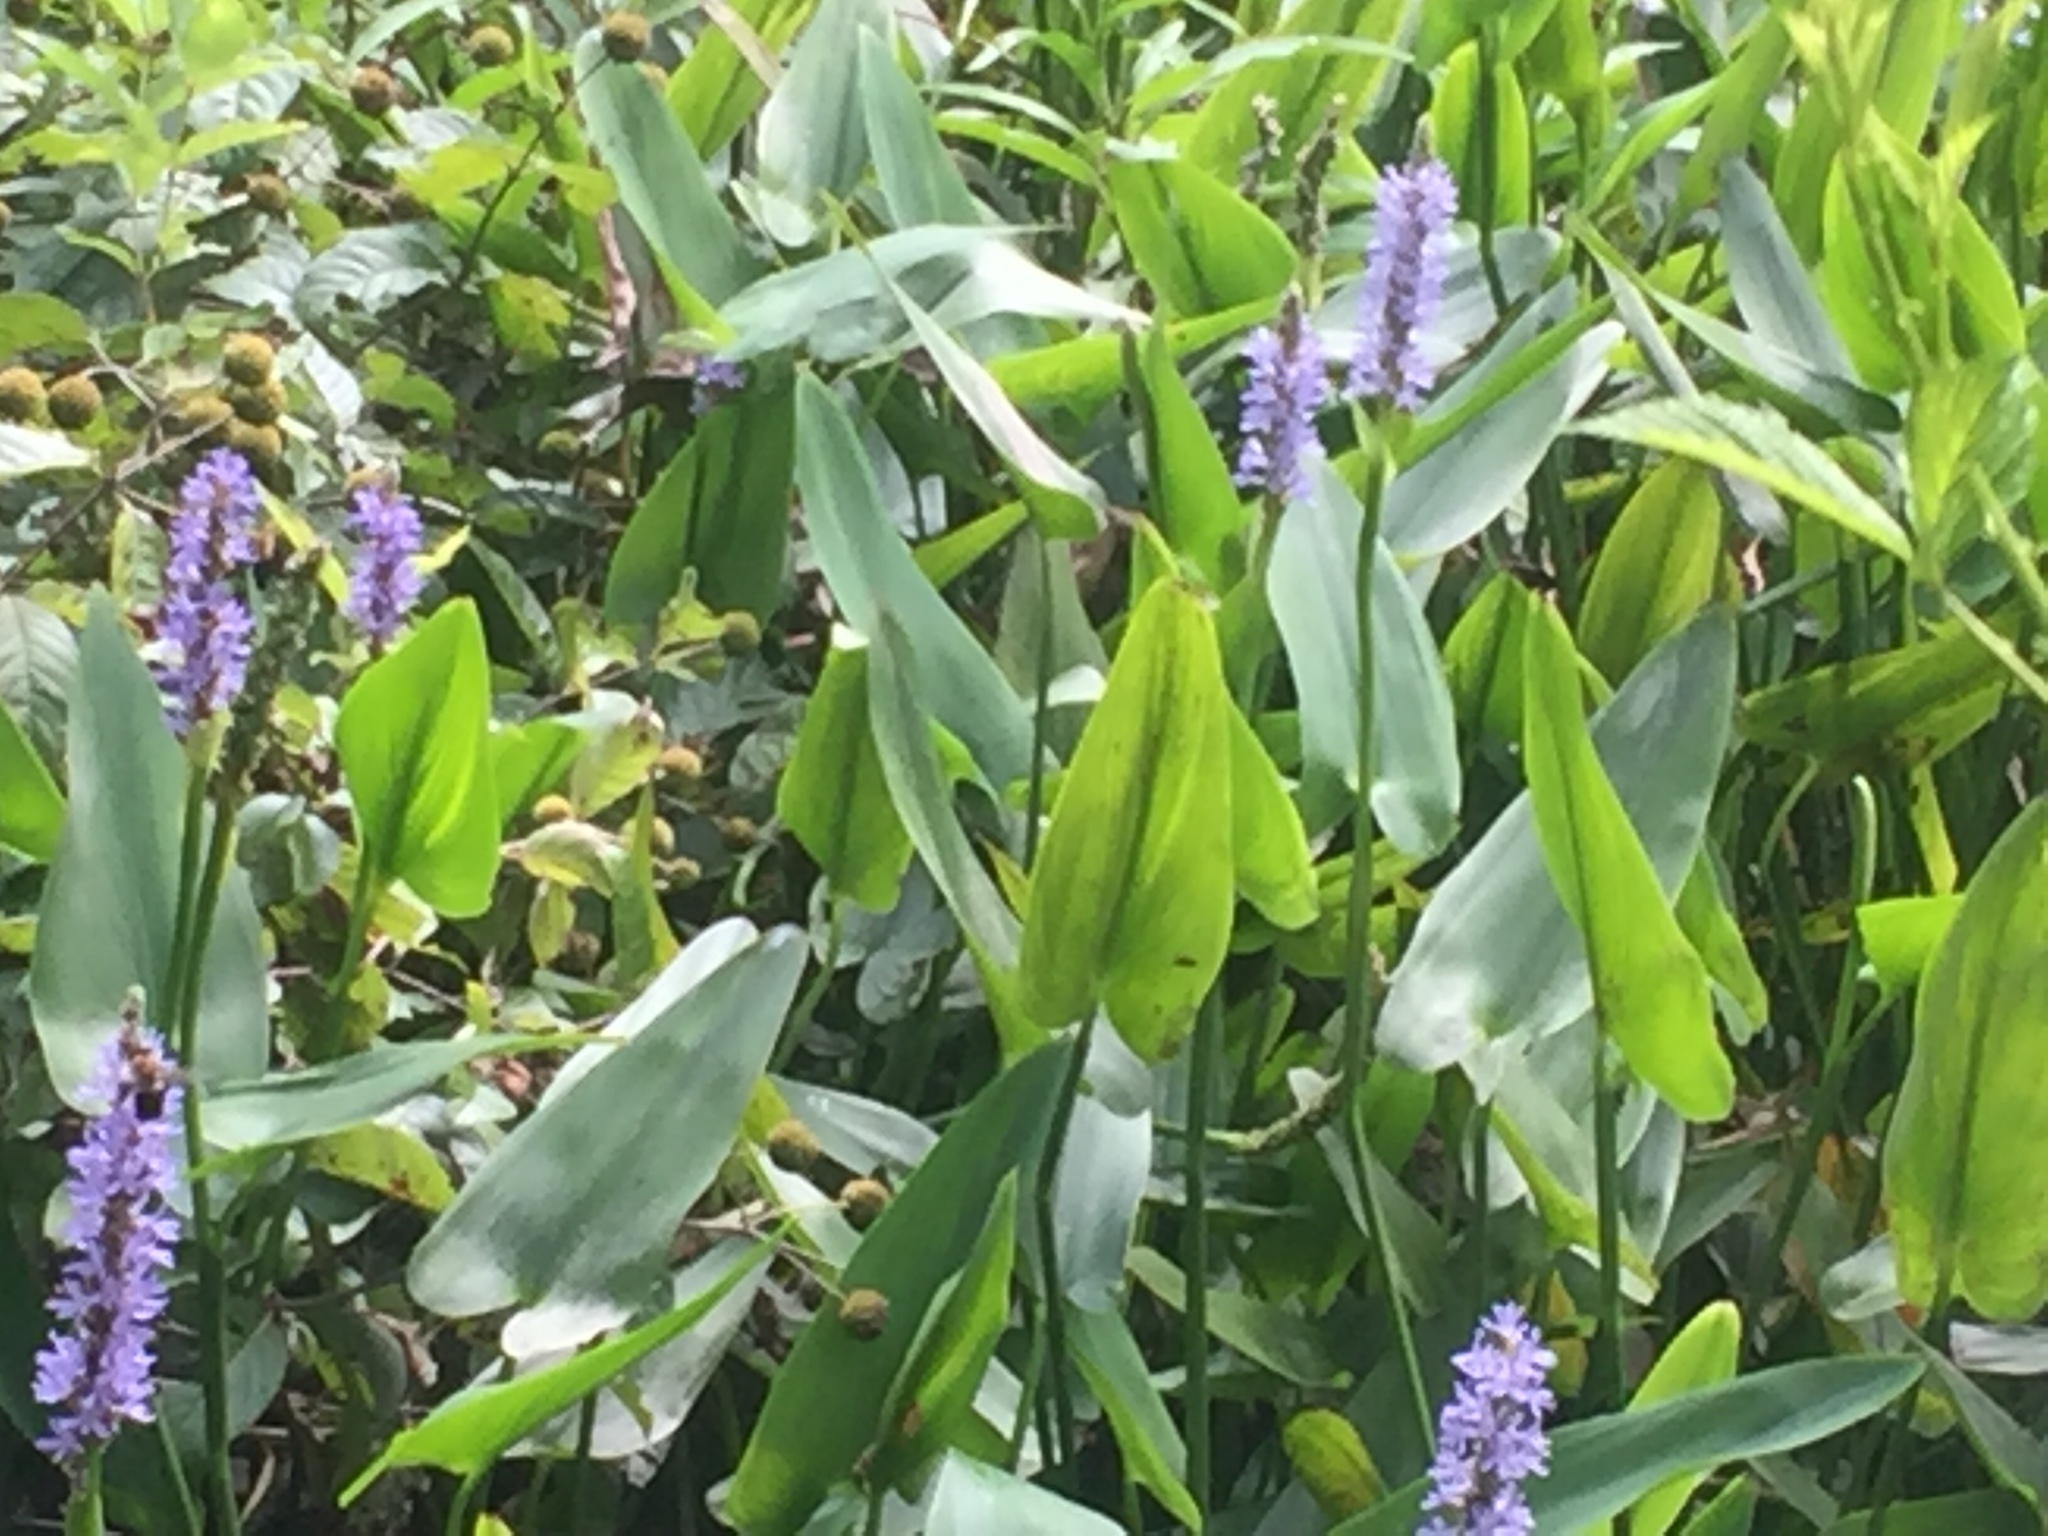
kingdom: Plantae
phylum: Tracheophyta
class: Liliopsida
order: Commelinales
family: Pontederiaceae
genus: Pontederia
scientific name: Pontederia cordata
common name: Pickerelweed
